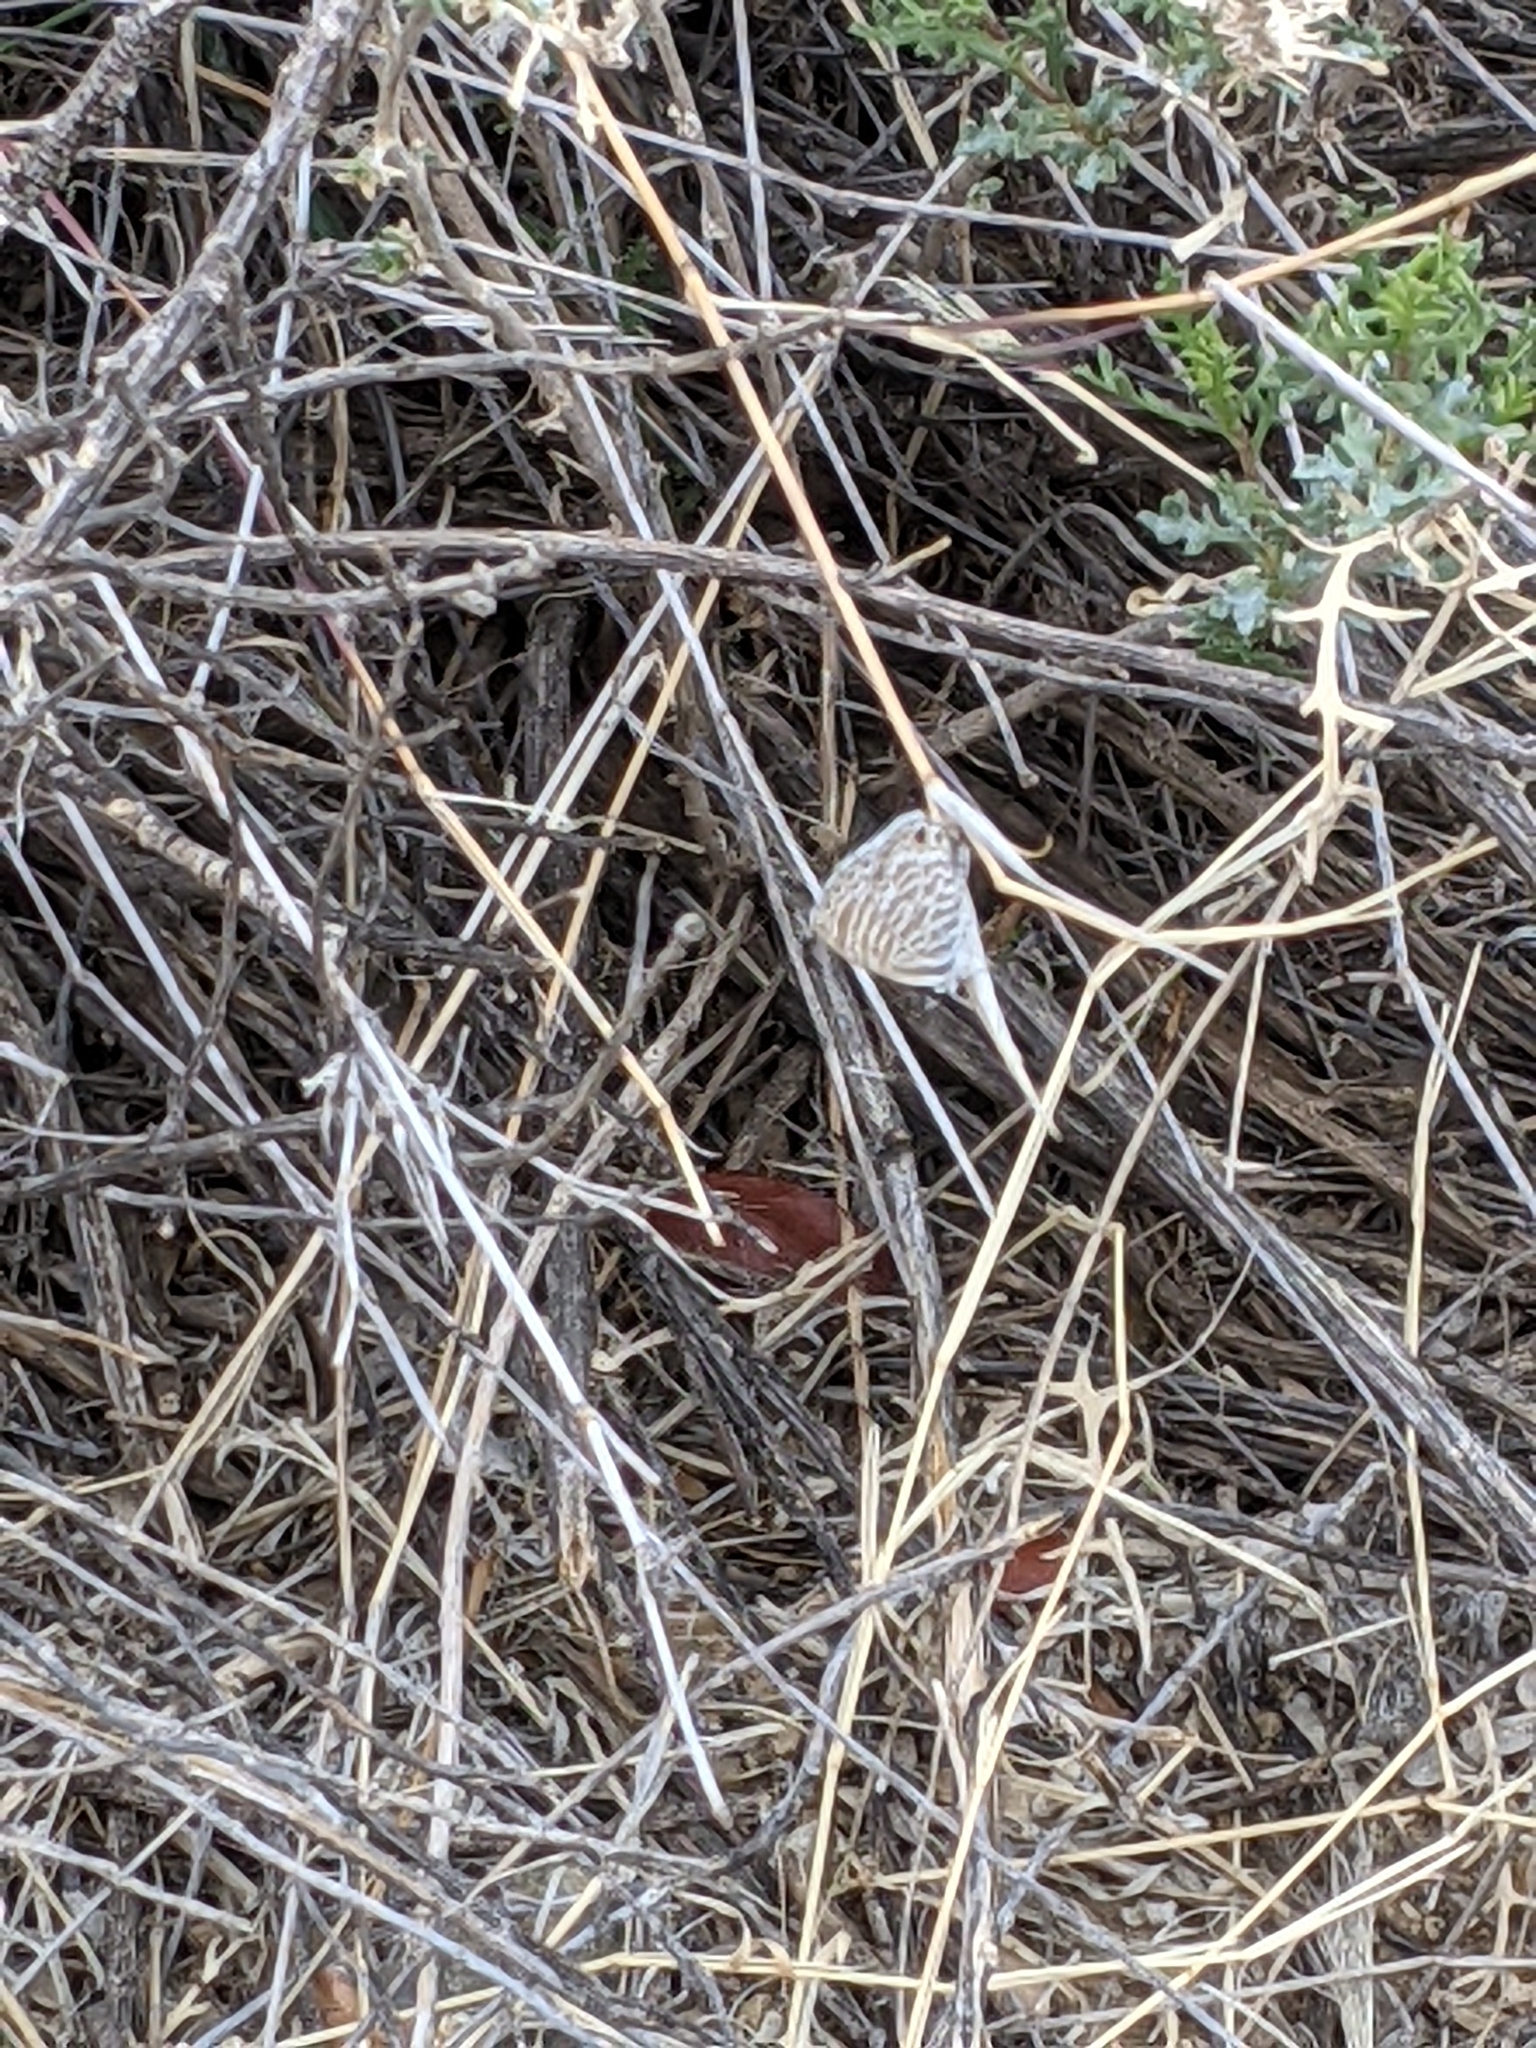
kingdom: Animalia
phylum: Arthropoda
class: Insecta
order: Lepidoptera
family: Lycaenidae
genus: Leptotes
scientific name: Leptotes marina
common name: Marine blue
